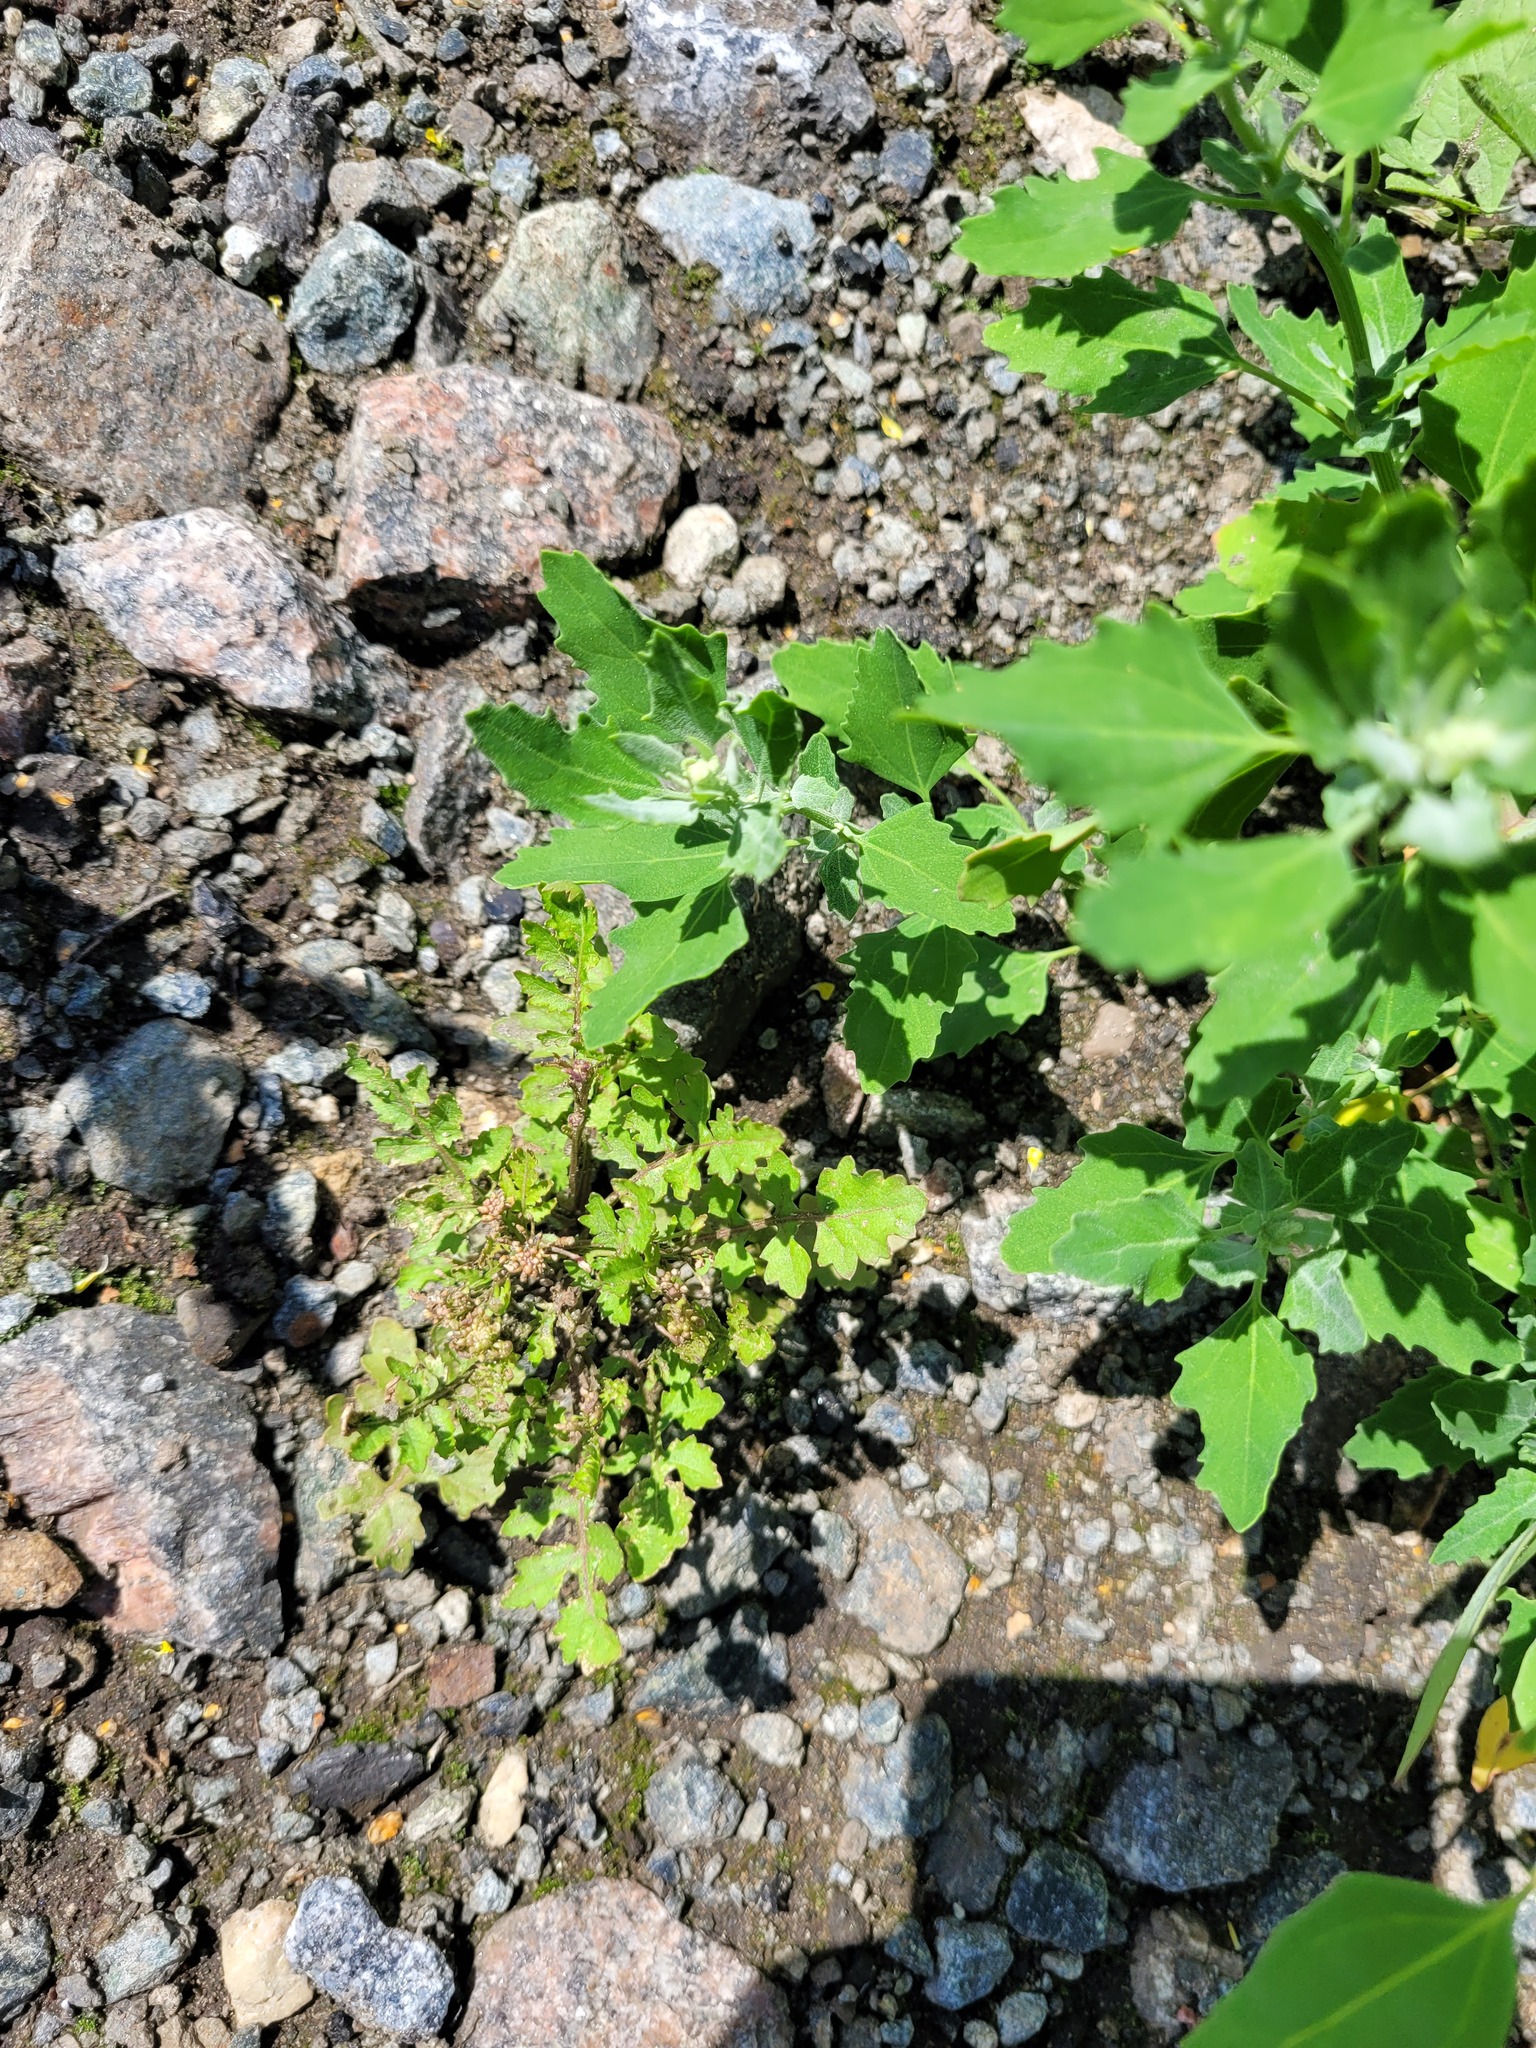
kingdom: Plantae
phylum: Tracheophyta
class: Magnoliopsida
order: Brassicales
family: Brassicaceae
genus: Rorippa
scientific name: Rorippa palustris
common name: Marsh yellow-cress
